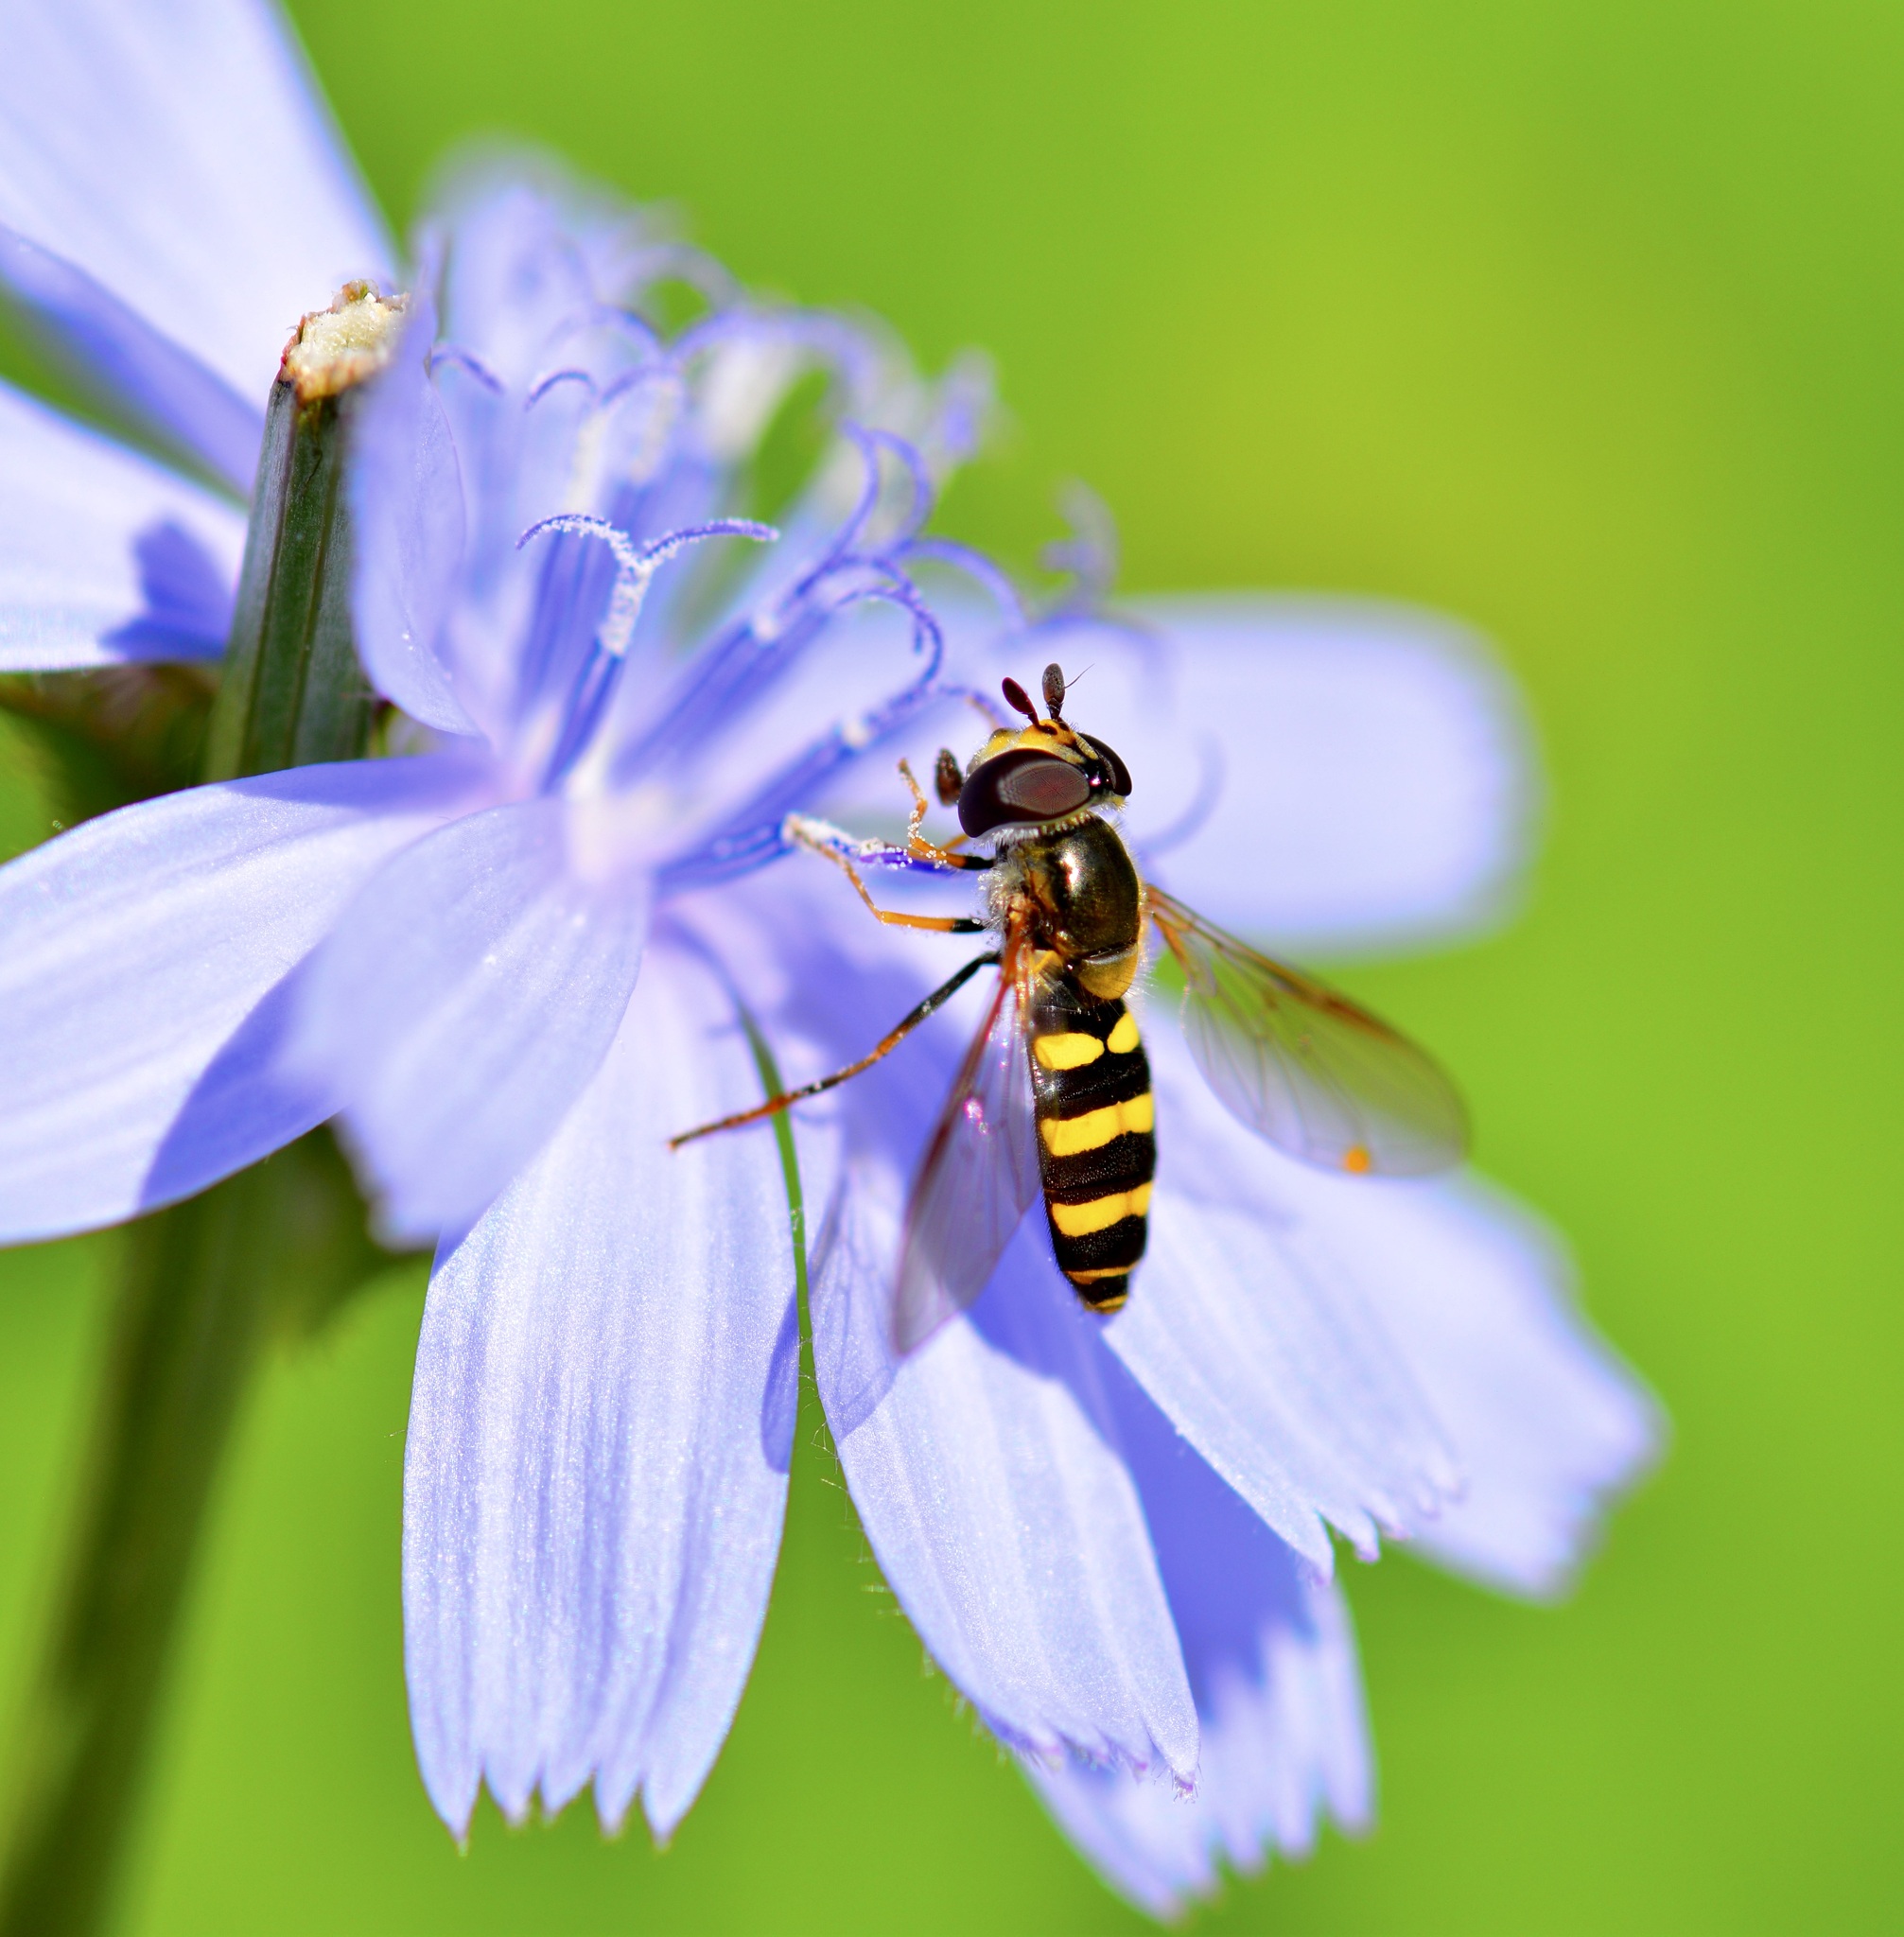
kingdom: Animalia
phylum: Arthropoda
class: Insecta
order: Diptera
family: Syrphidae
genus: Eupeodes
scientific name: Eupeodes
